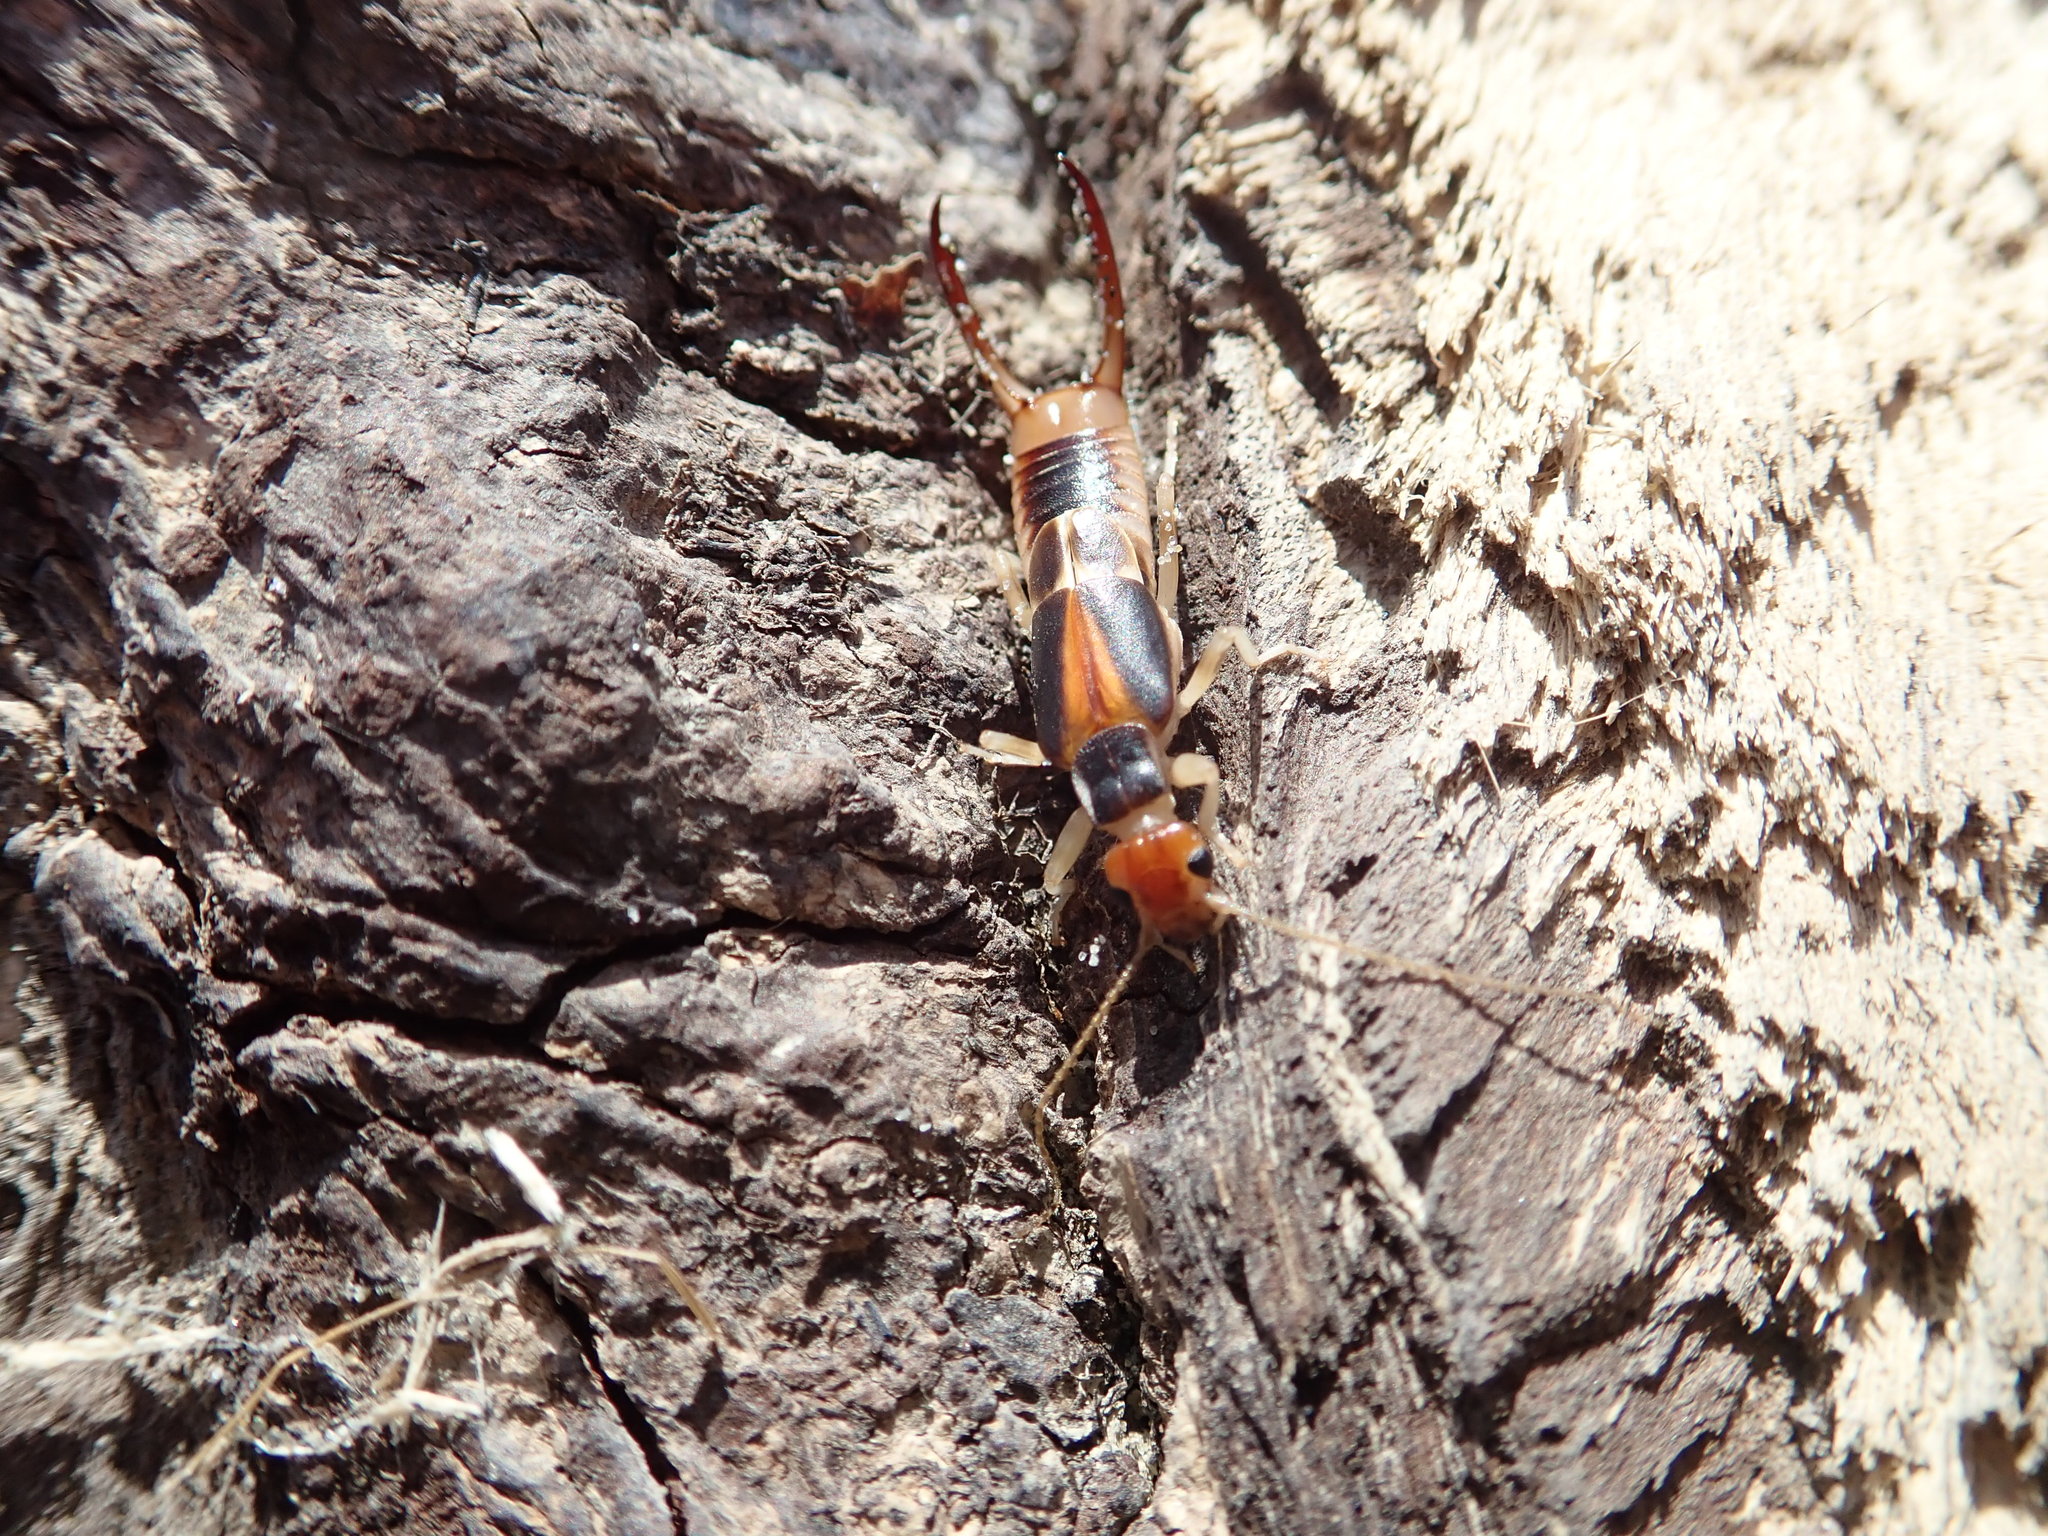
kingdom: Animalia
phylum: Arthropoda
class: Insecta
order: Dermaptera
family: Labiduridae
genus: Labidura
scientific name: Labidura riparia
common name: Striped earwig
